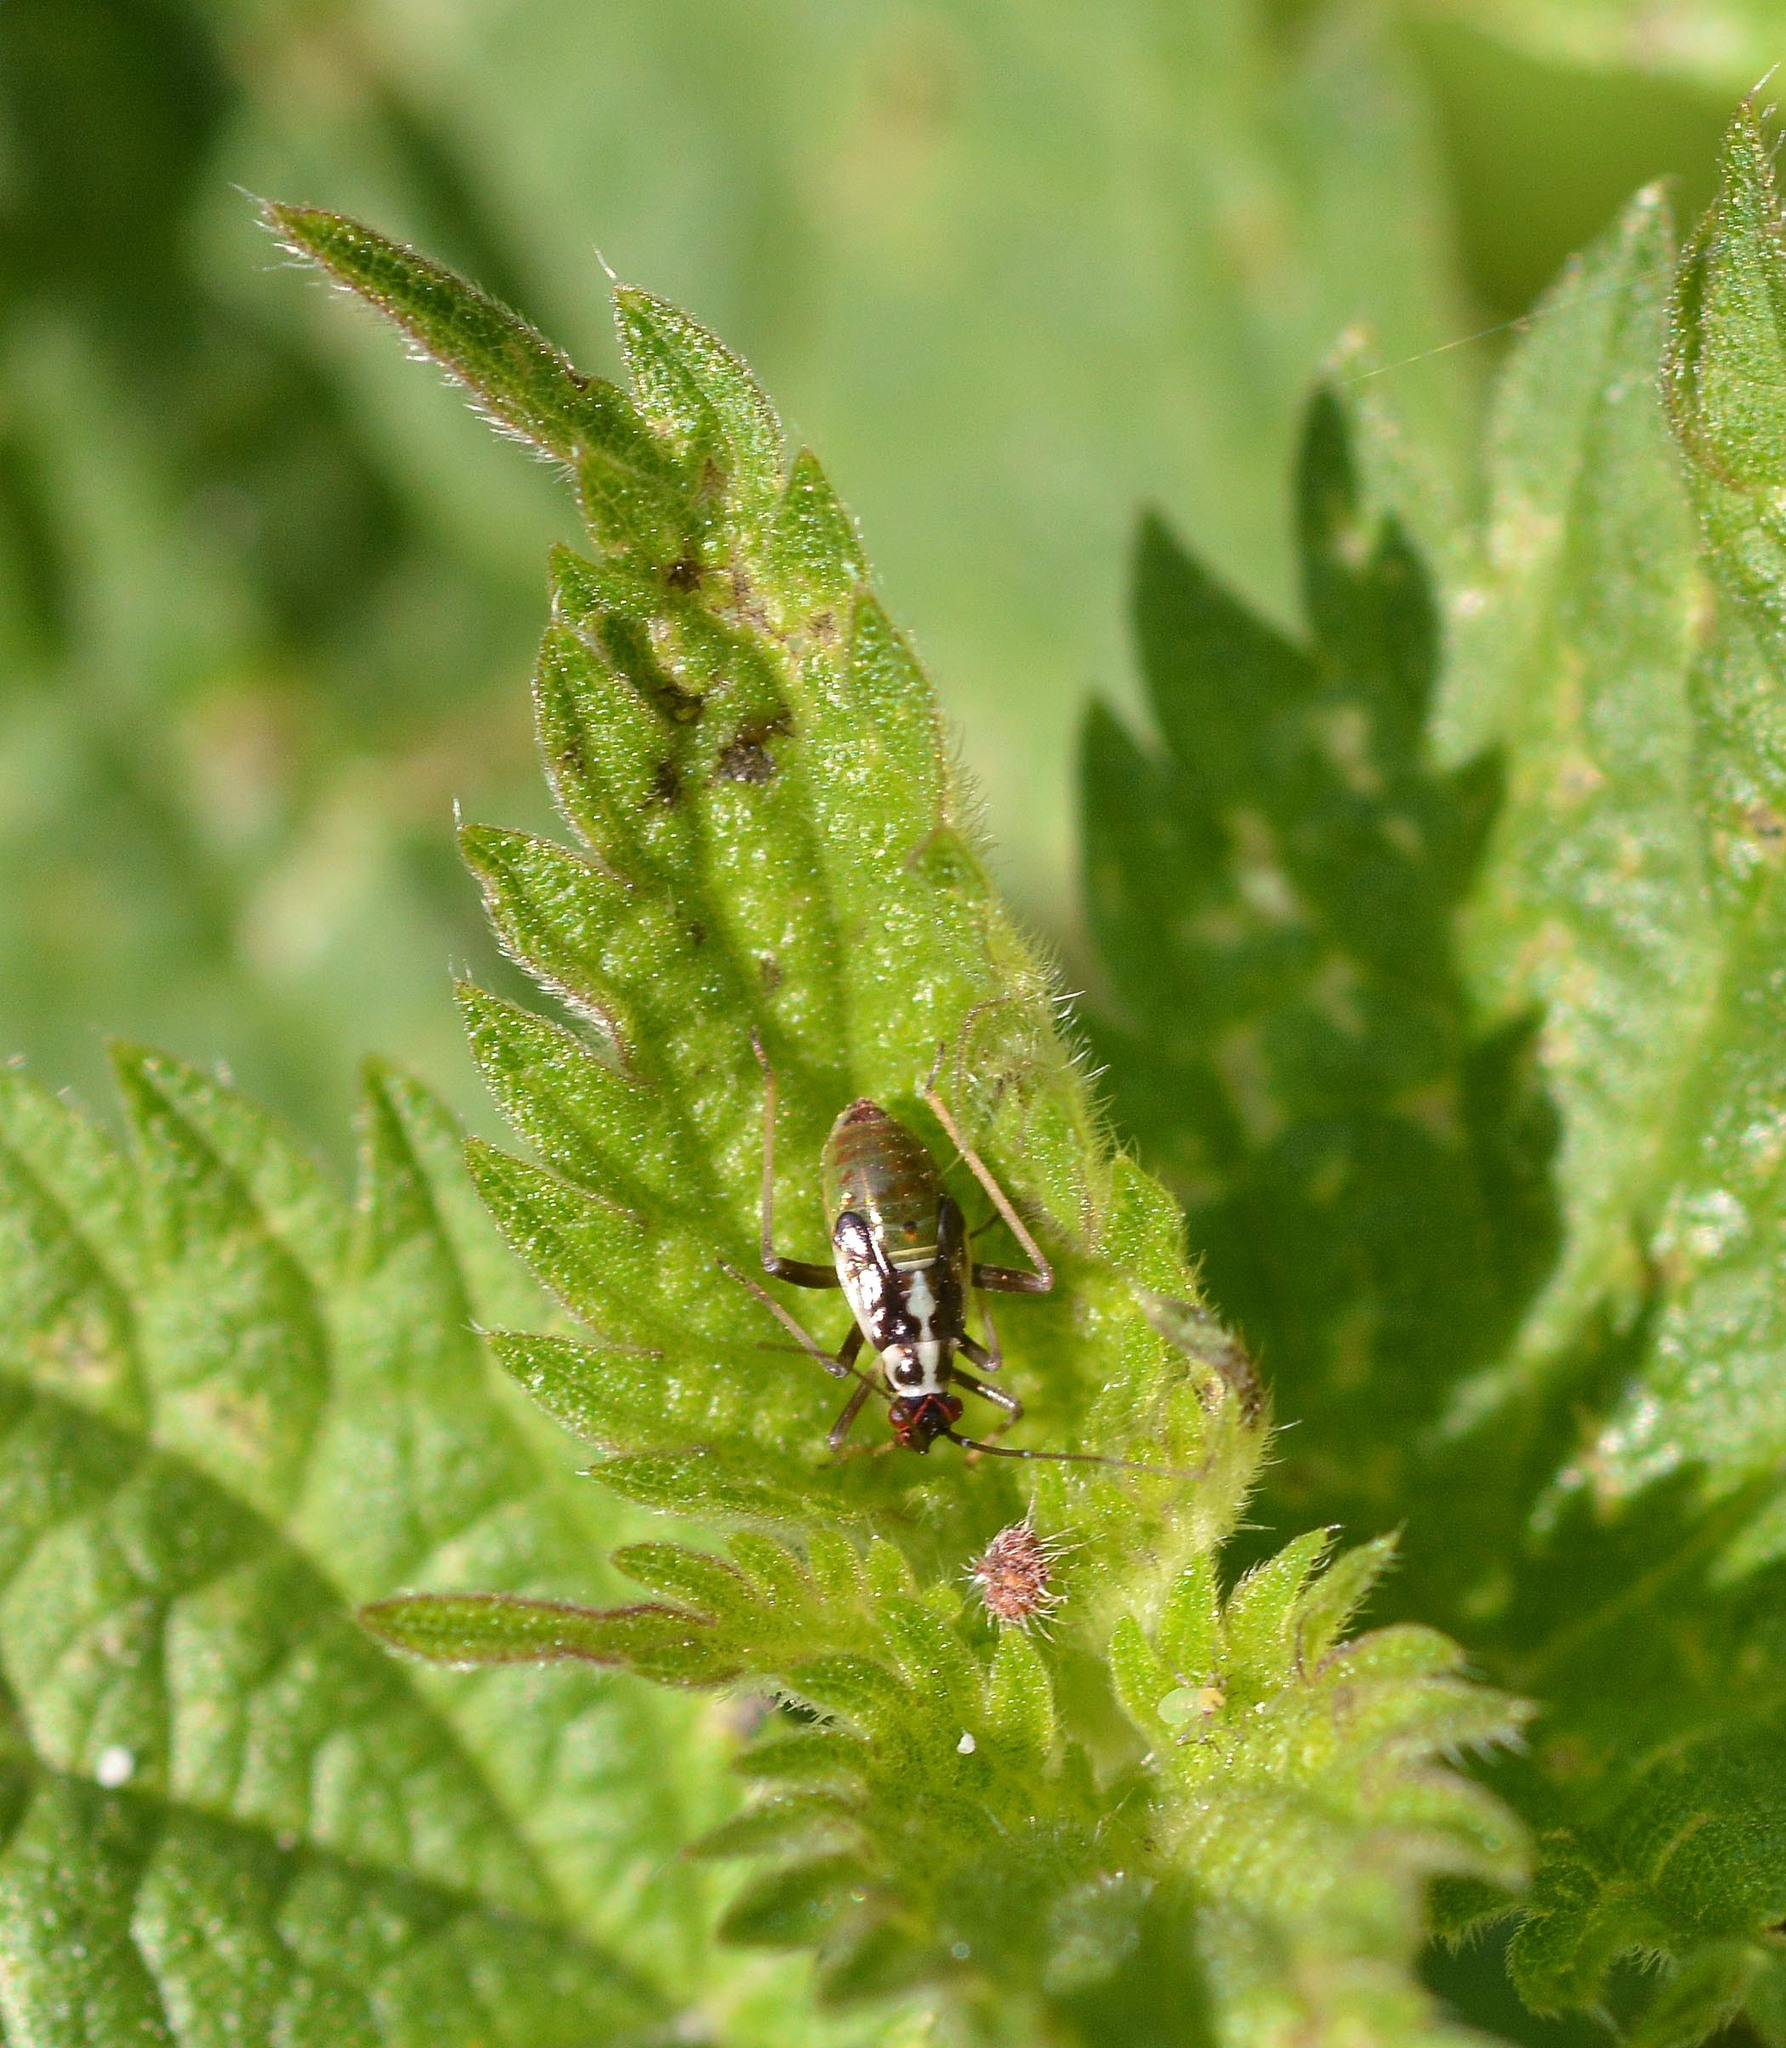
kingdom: Animalia
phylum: Arthropoda
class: Insecta
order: Hemiptera
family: Miridae
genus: Grypocoris
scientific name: Grypocoris stysi
